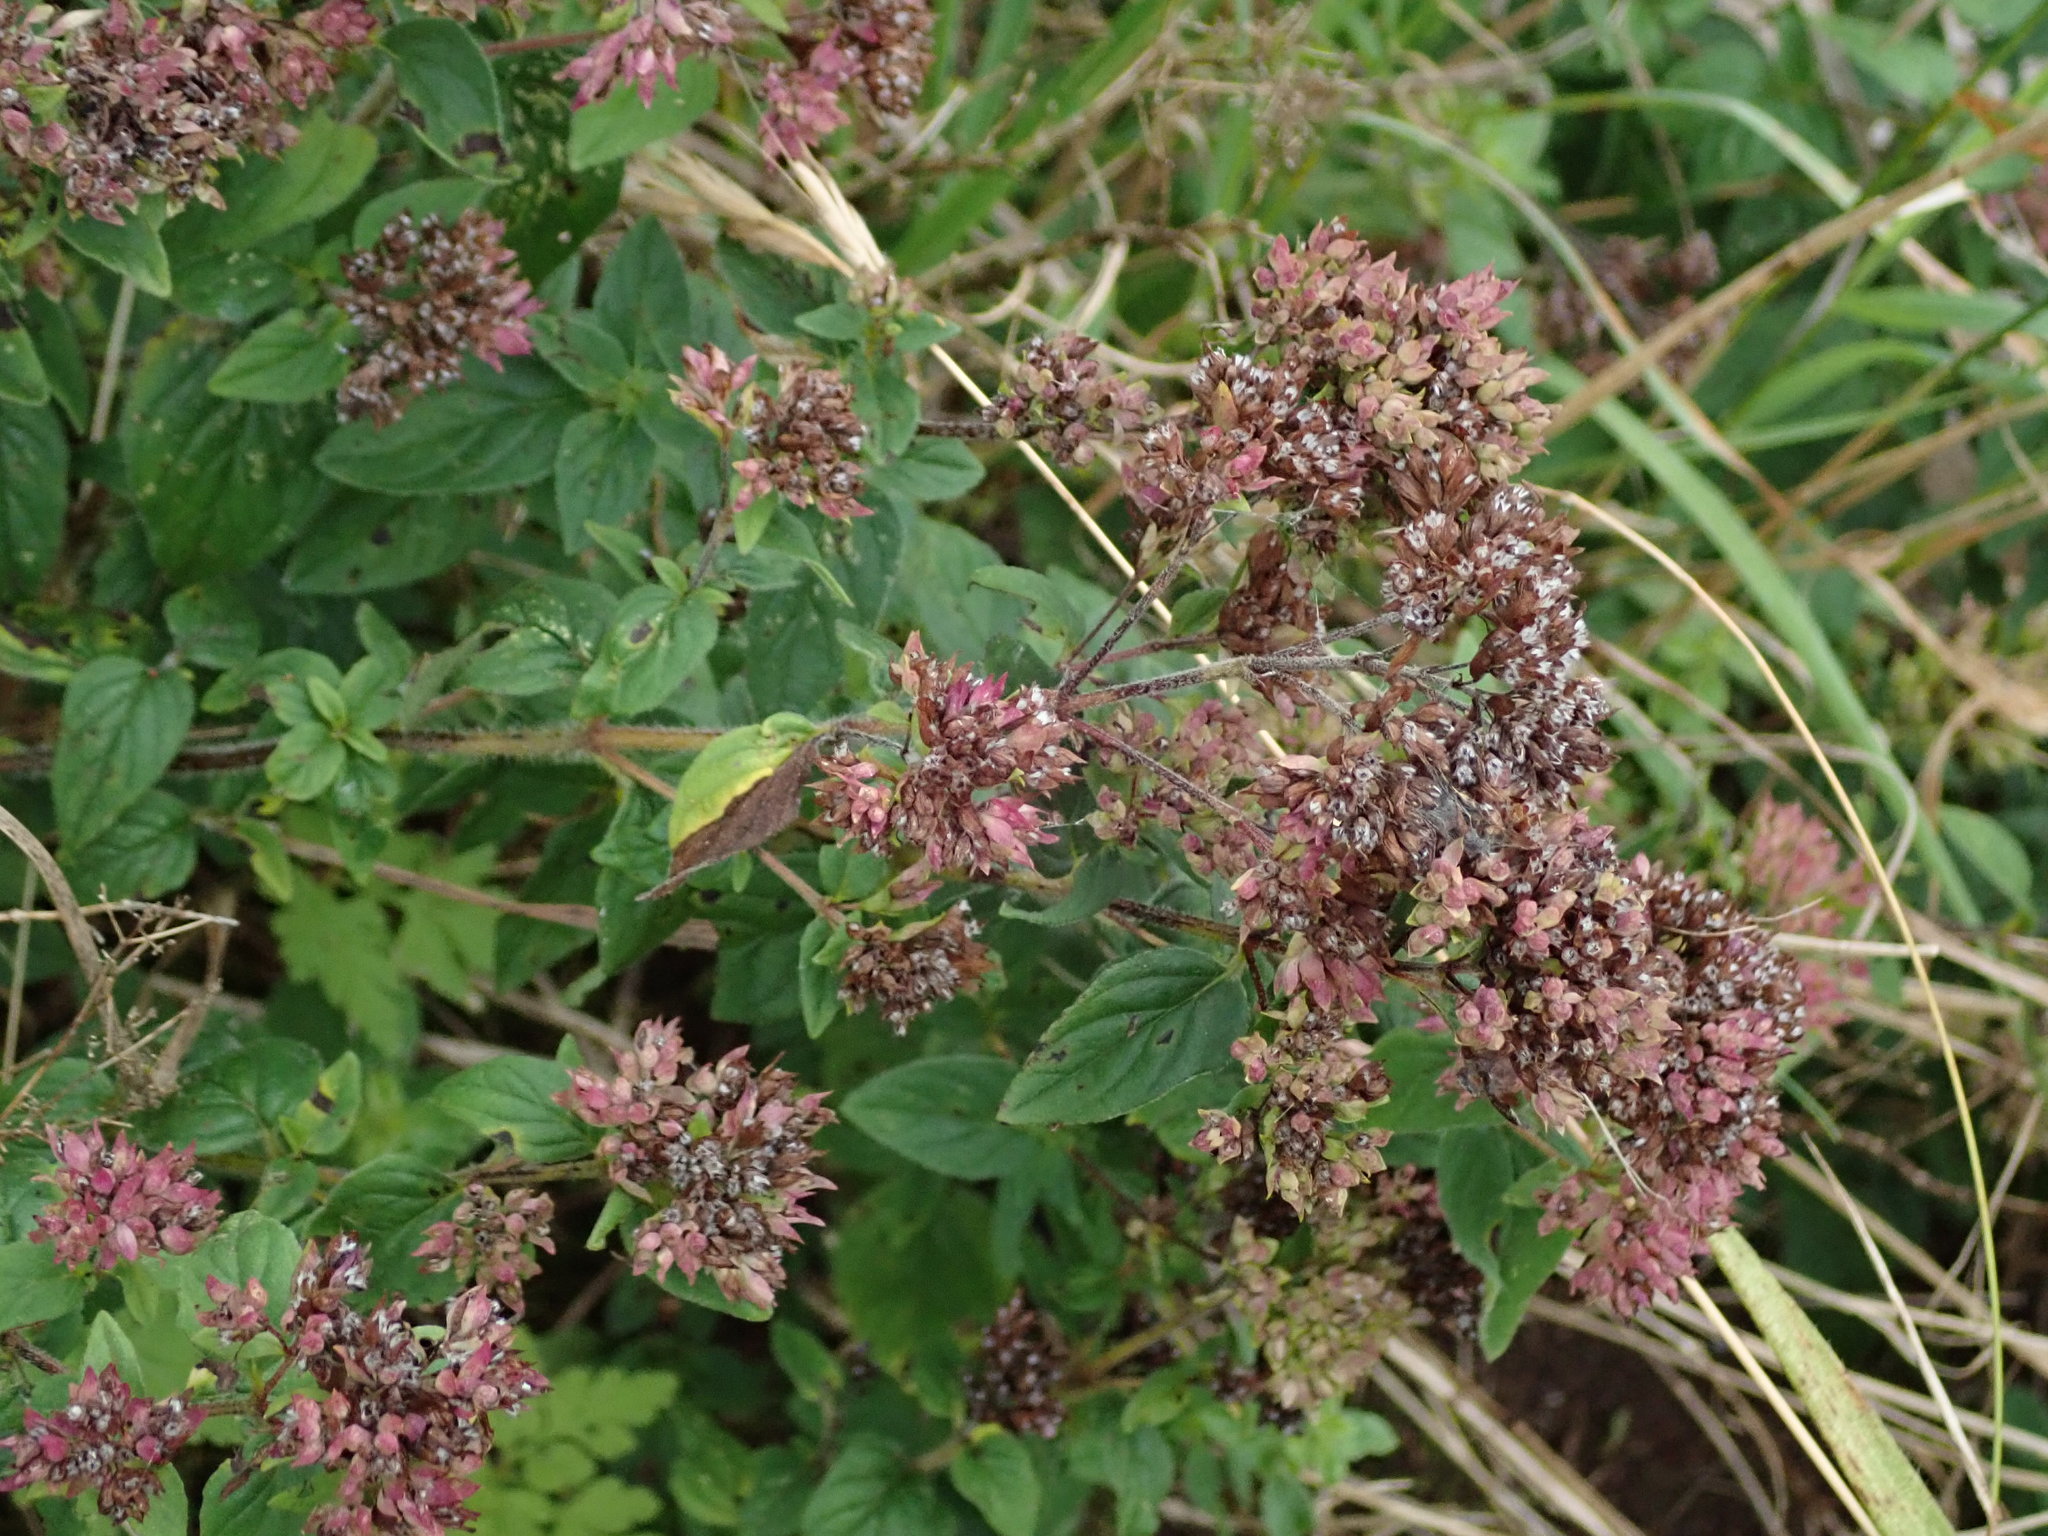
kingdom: Plantae
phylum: Tracheophyta
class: Magnoliopsida
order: Lamiales
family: Lamiaceae
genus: Origanum
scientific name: Origanum vulgare
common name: Wild marjoram
